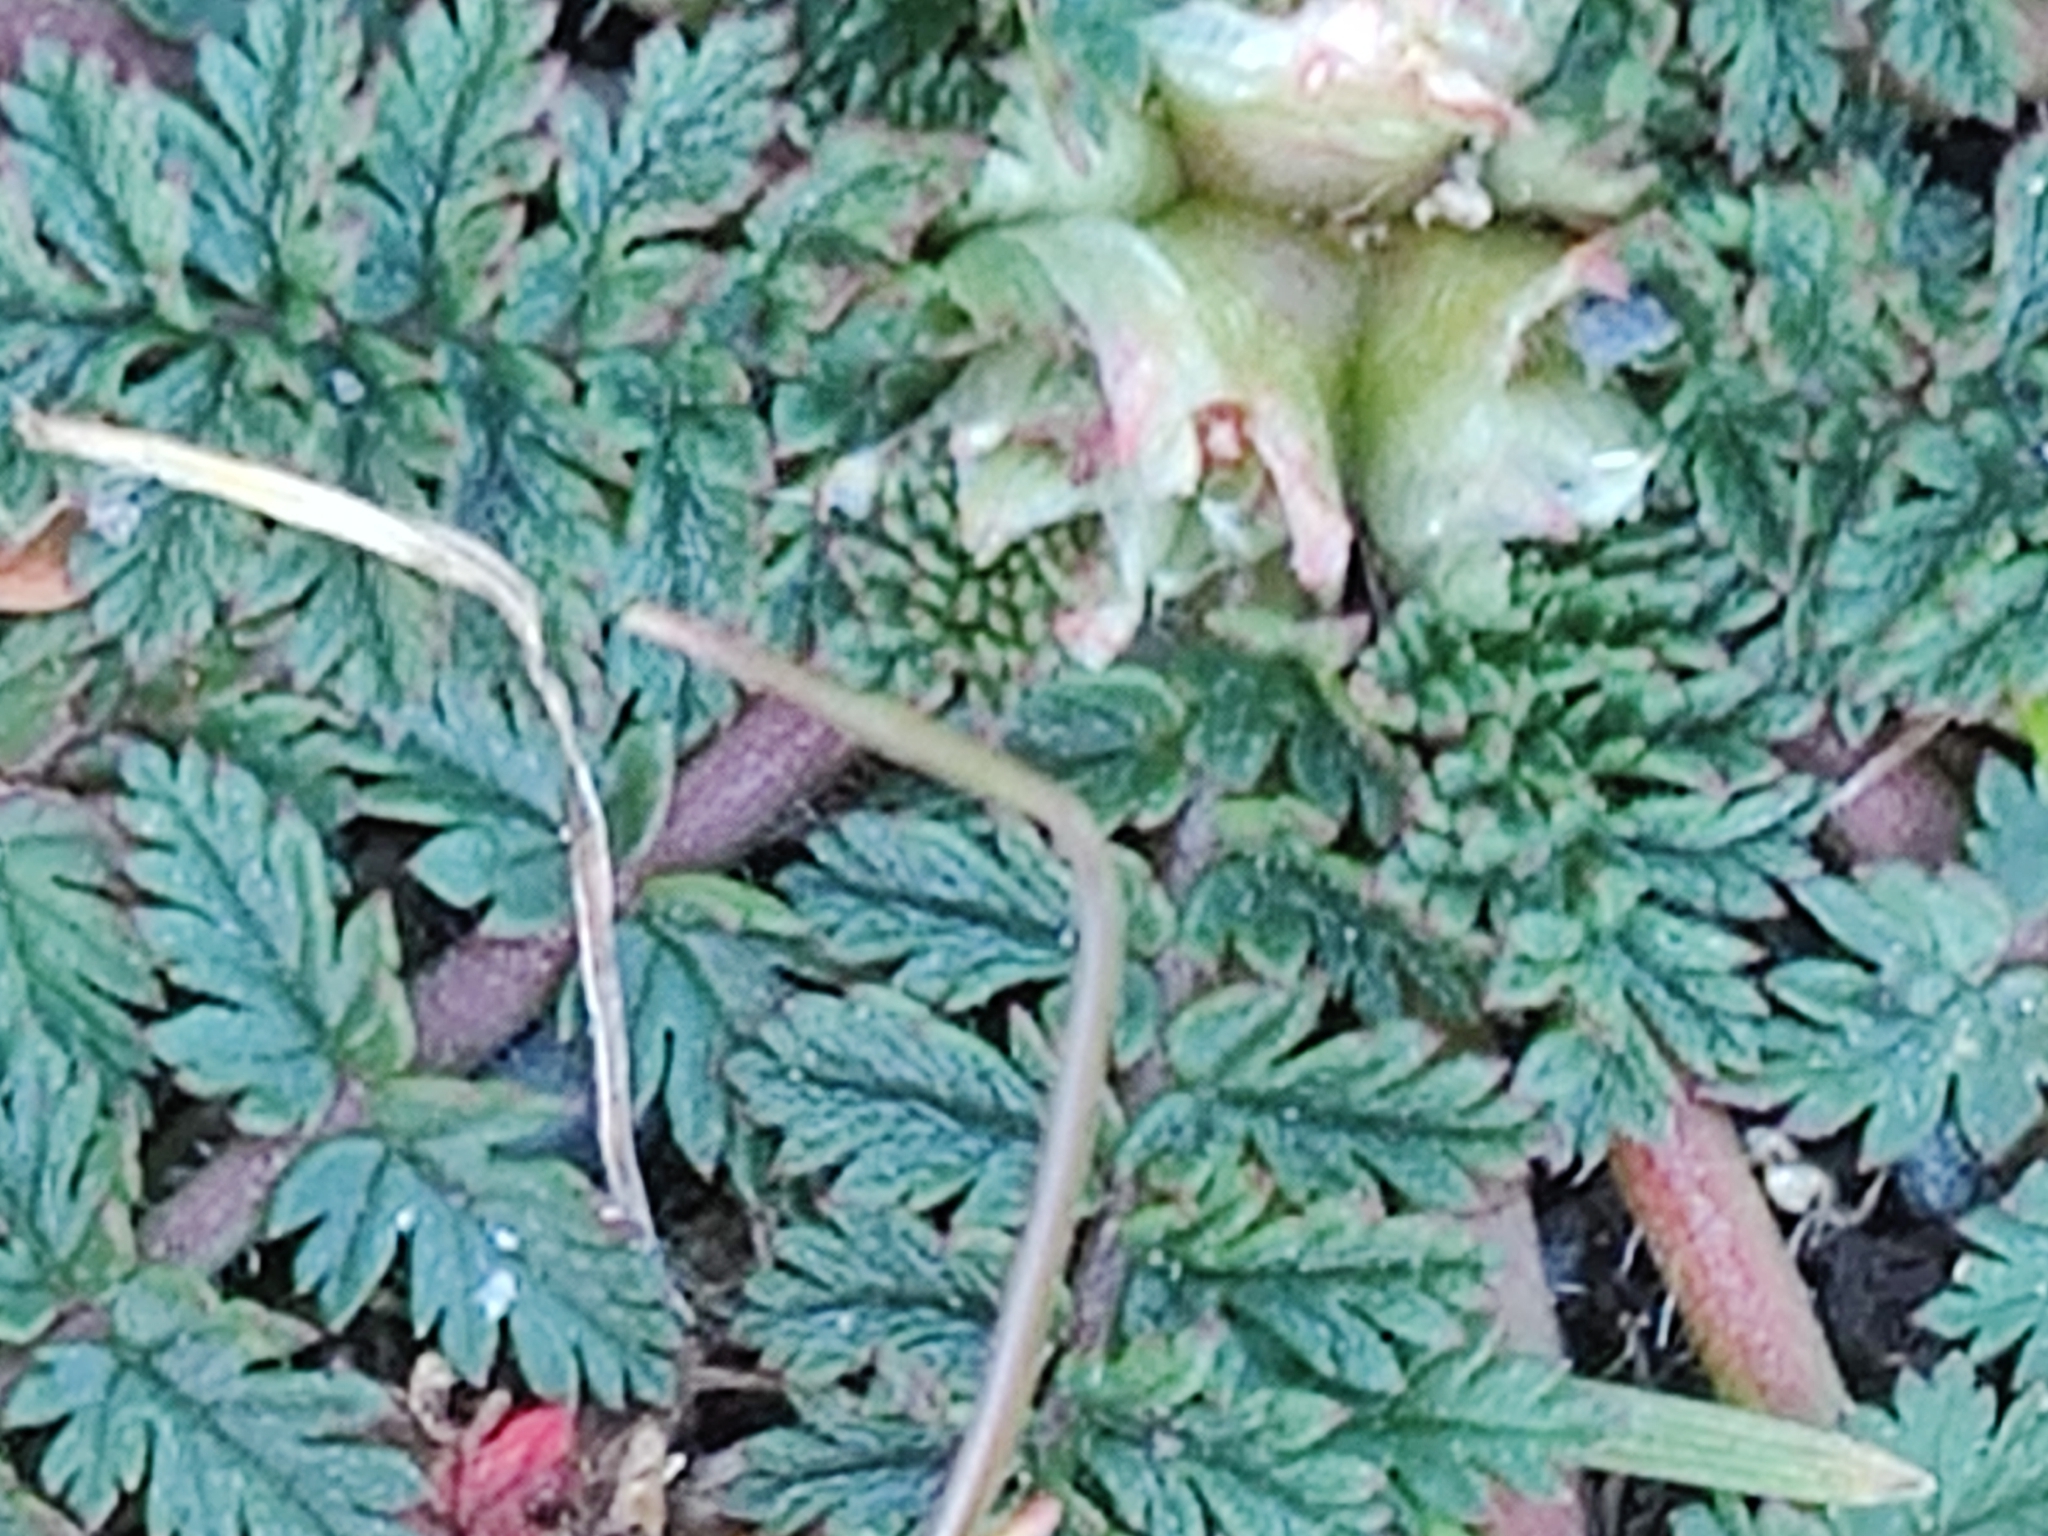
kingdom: Plantae
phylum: Tracheophyta
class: Magnoliopsida
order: Geraniales
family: Geraniaceae
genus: Erodium
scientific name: Erodium cicutarium
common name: Common stork's-bill
